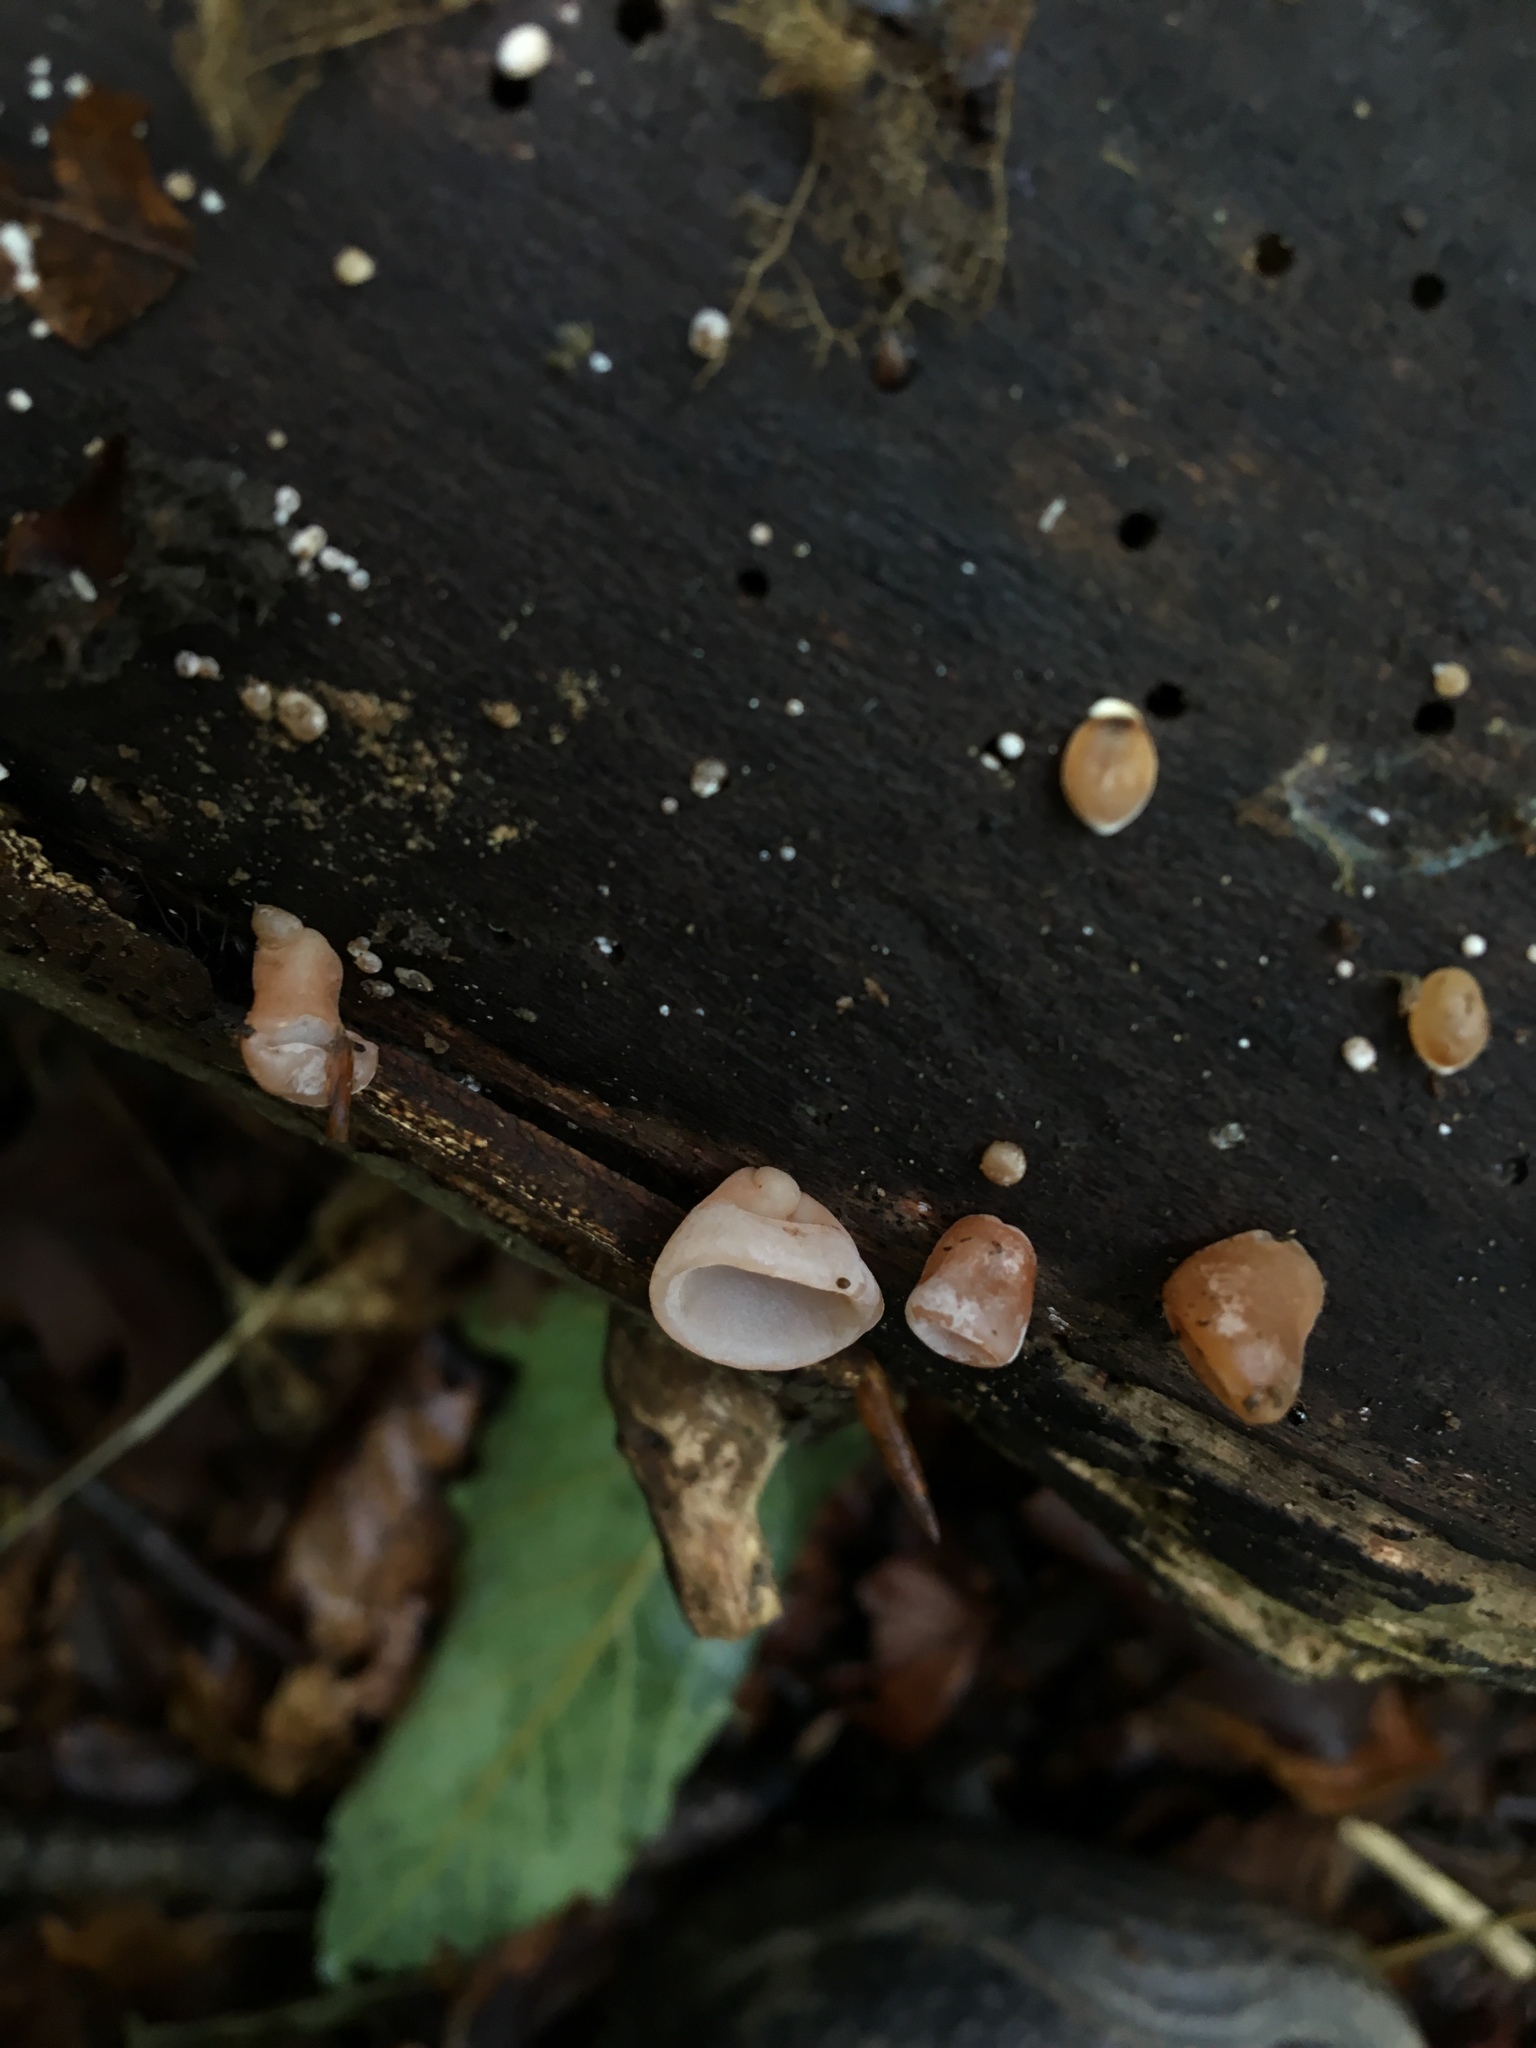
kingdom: Fungi
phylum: Basidiomycota
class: Agaricomycetes
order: Auriculariales
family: Auriculariaceae
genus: Auricularia
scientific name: Auricularia auricula-judae
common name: Jelly ear
